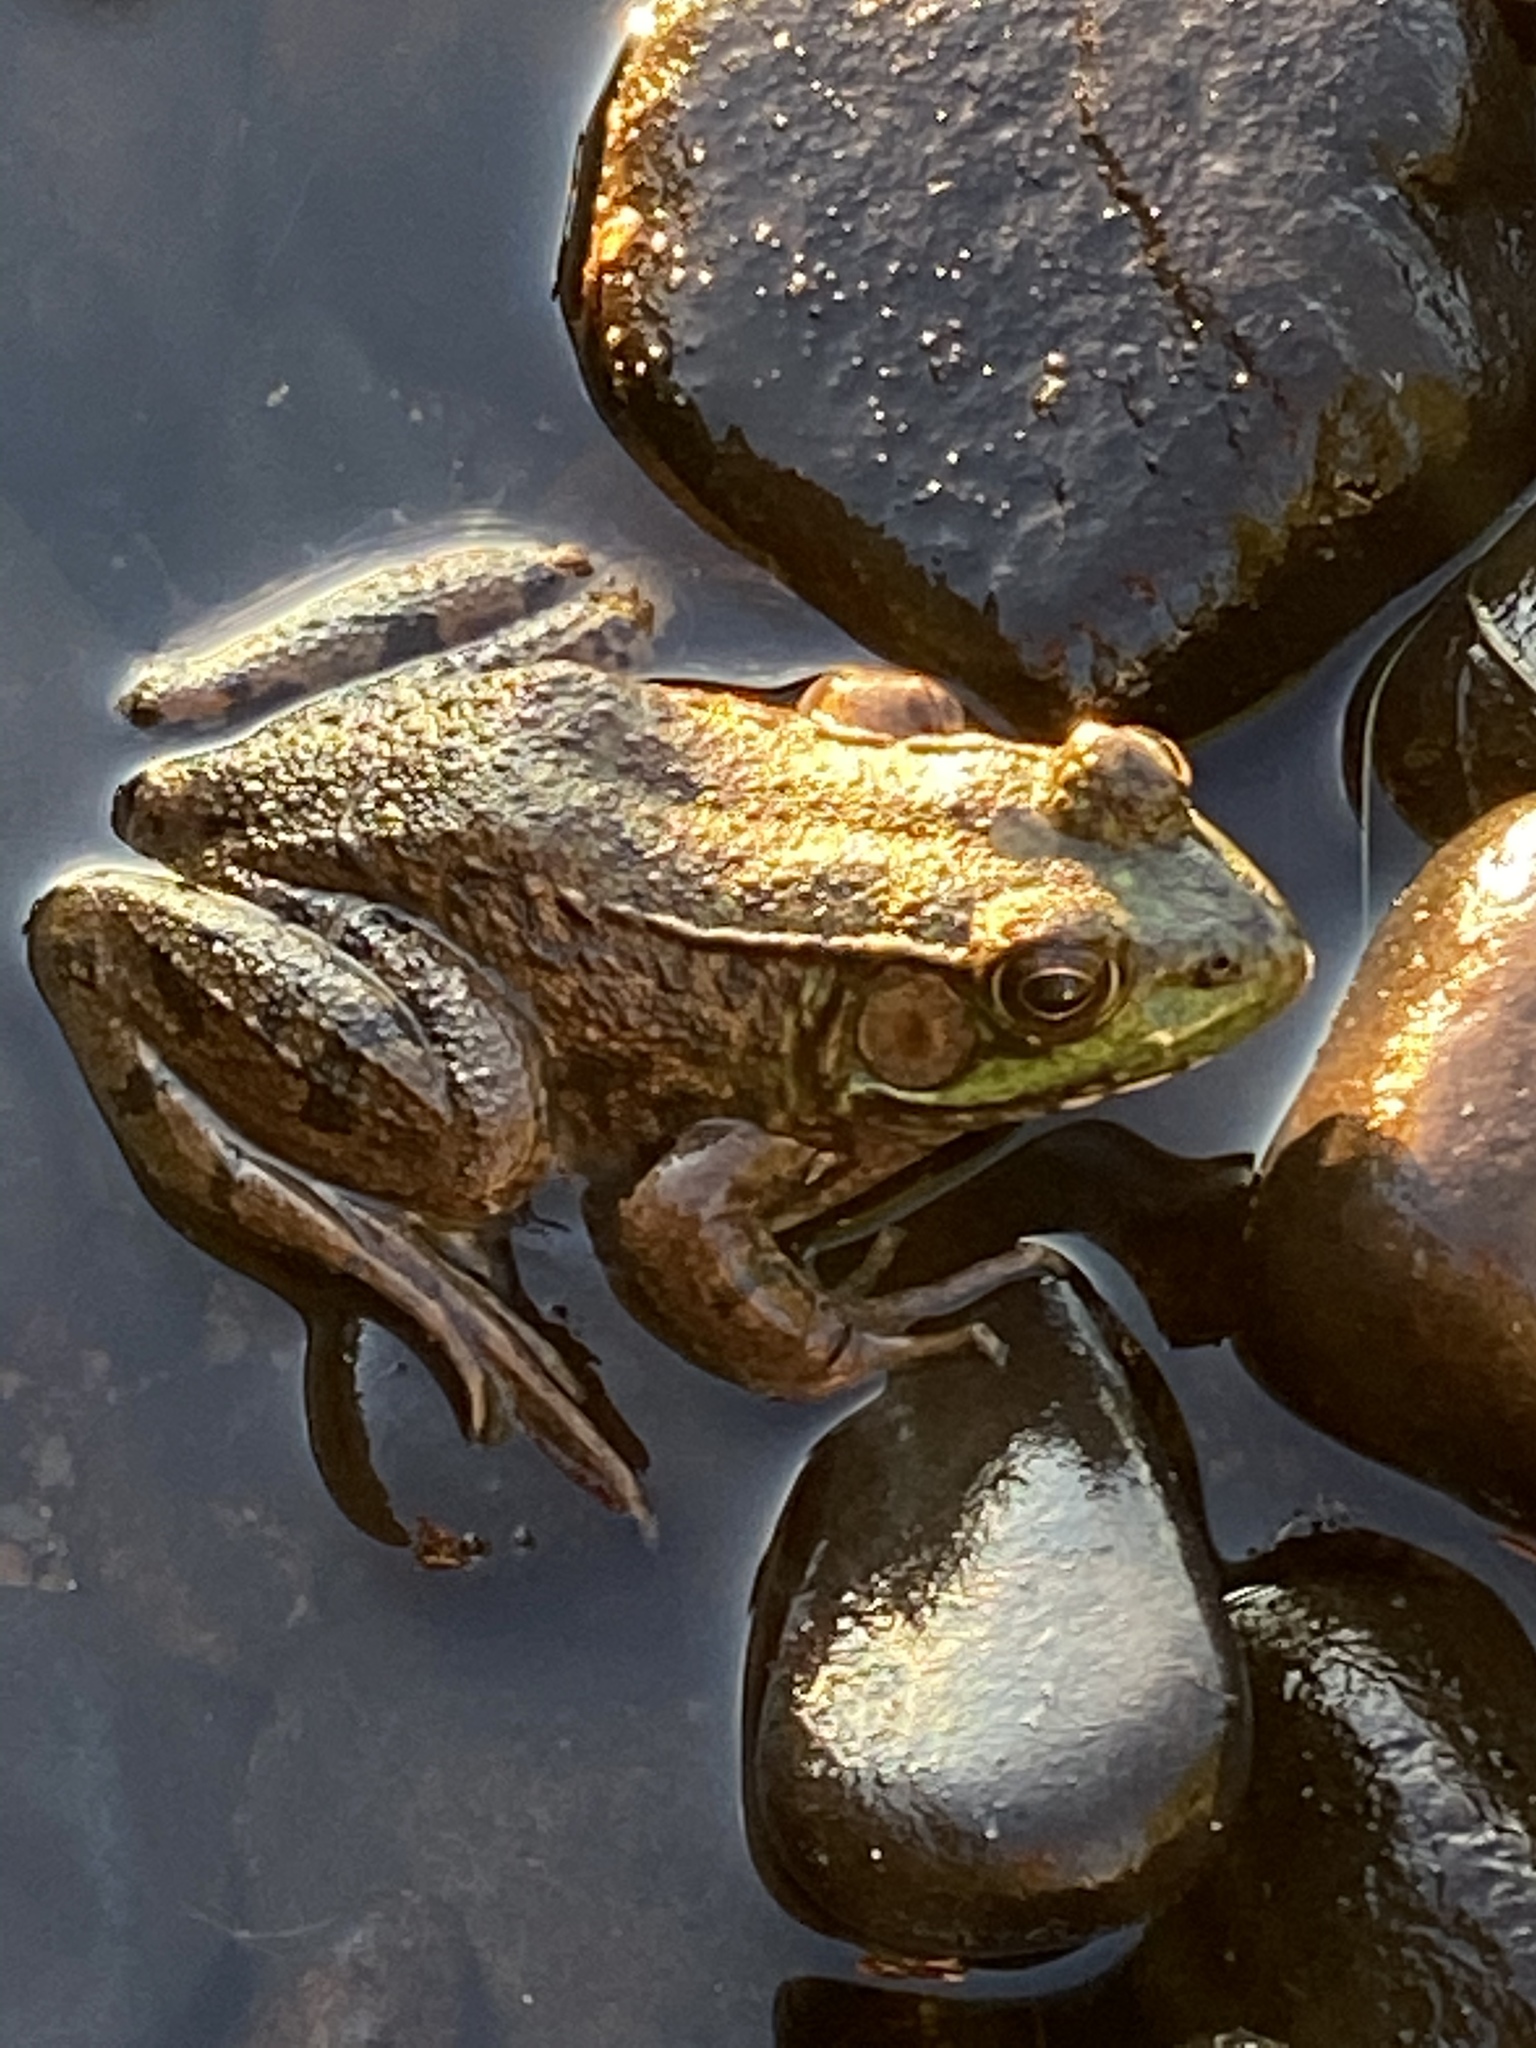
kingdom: Animalia
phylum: Chordata
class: Amphibia
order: Anura
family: Ranidae
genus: Lithobates
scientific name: Lithobates clamitans
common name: Green frog
